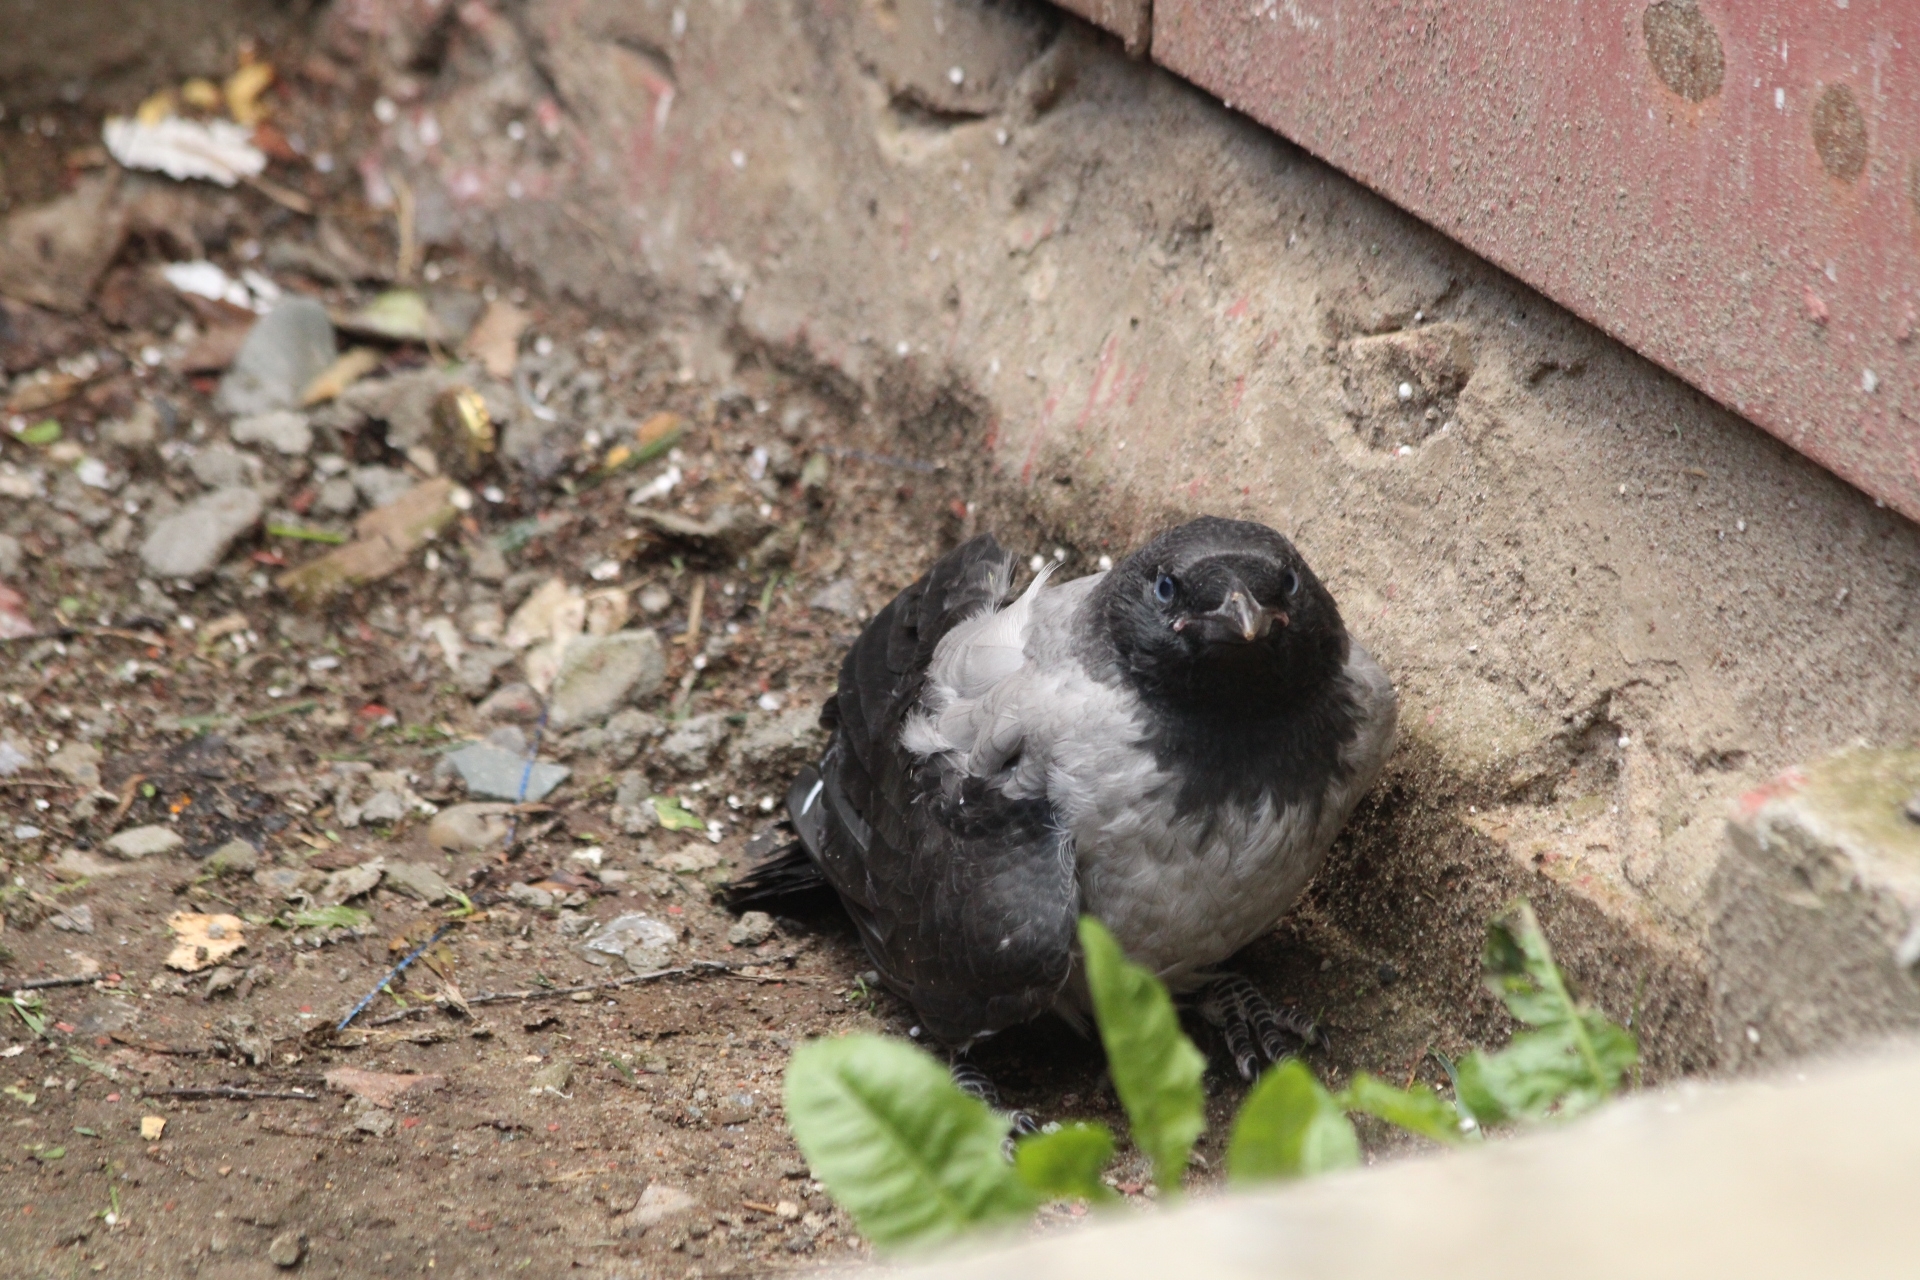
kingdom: Animalia
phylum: Chordata
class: Aves
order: Passeriformes
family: Corvidae
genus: Corvus
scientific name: Corvus cornix
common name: Hooded crow
